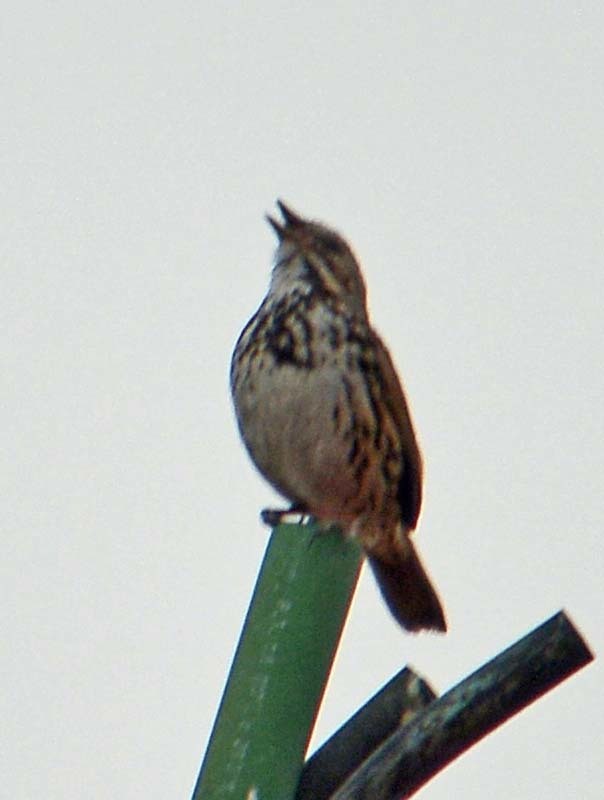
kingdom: Animalia
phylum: Chordata
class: Aves
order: Passeriformes
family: Passerellidae
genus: Melospiza
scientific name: Melospiza melodia
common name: Song sparrow
